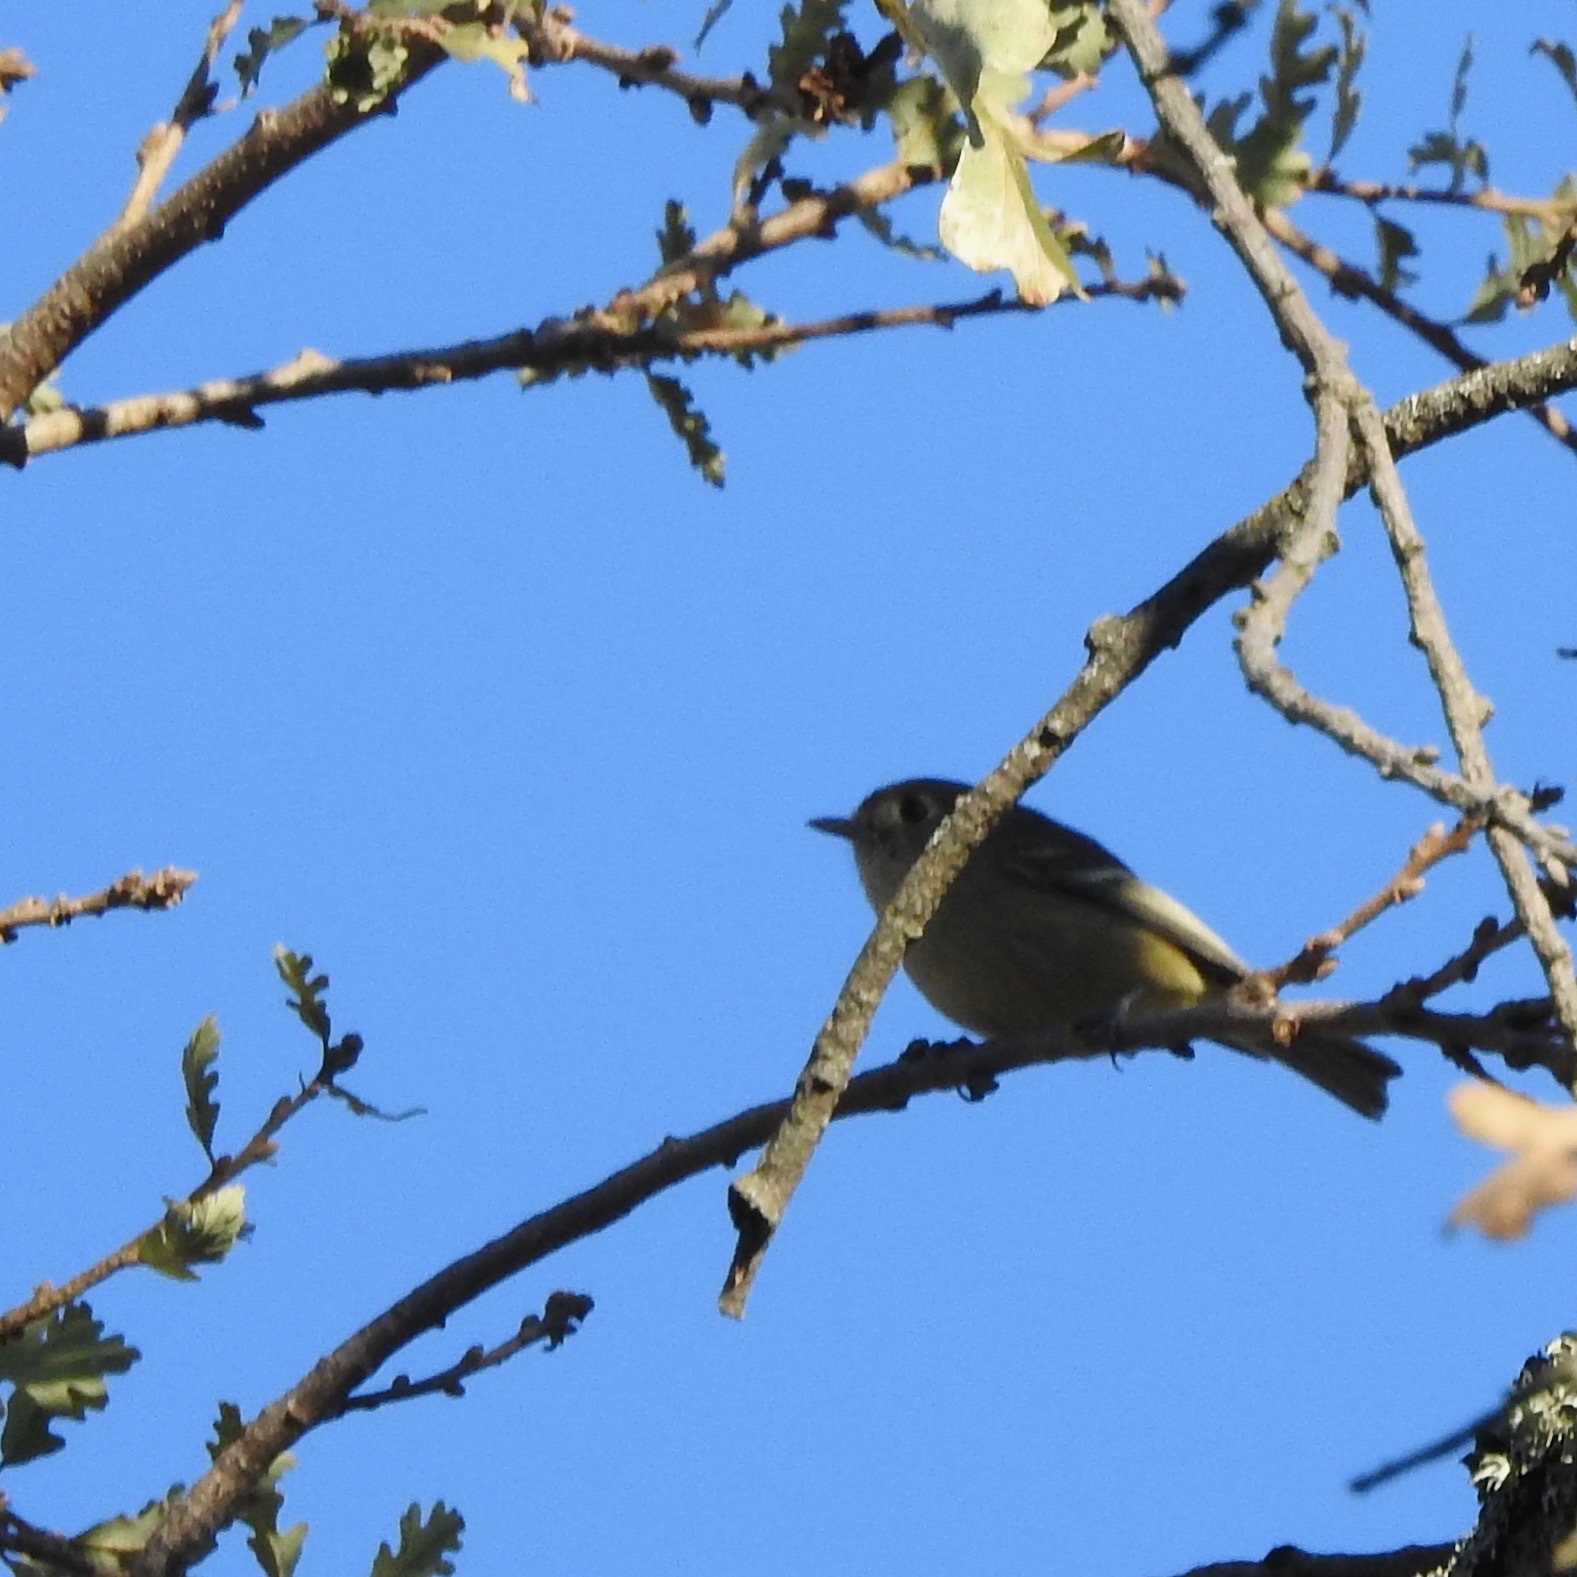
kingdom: Animalia
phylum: Chordata
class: Aves
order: Passeriformes
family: Regulidae
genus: Regulus
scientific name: Regulus calendula
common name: Ruby-crowned kinglet
